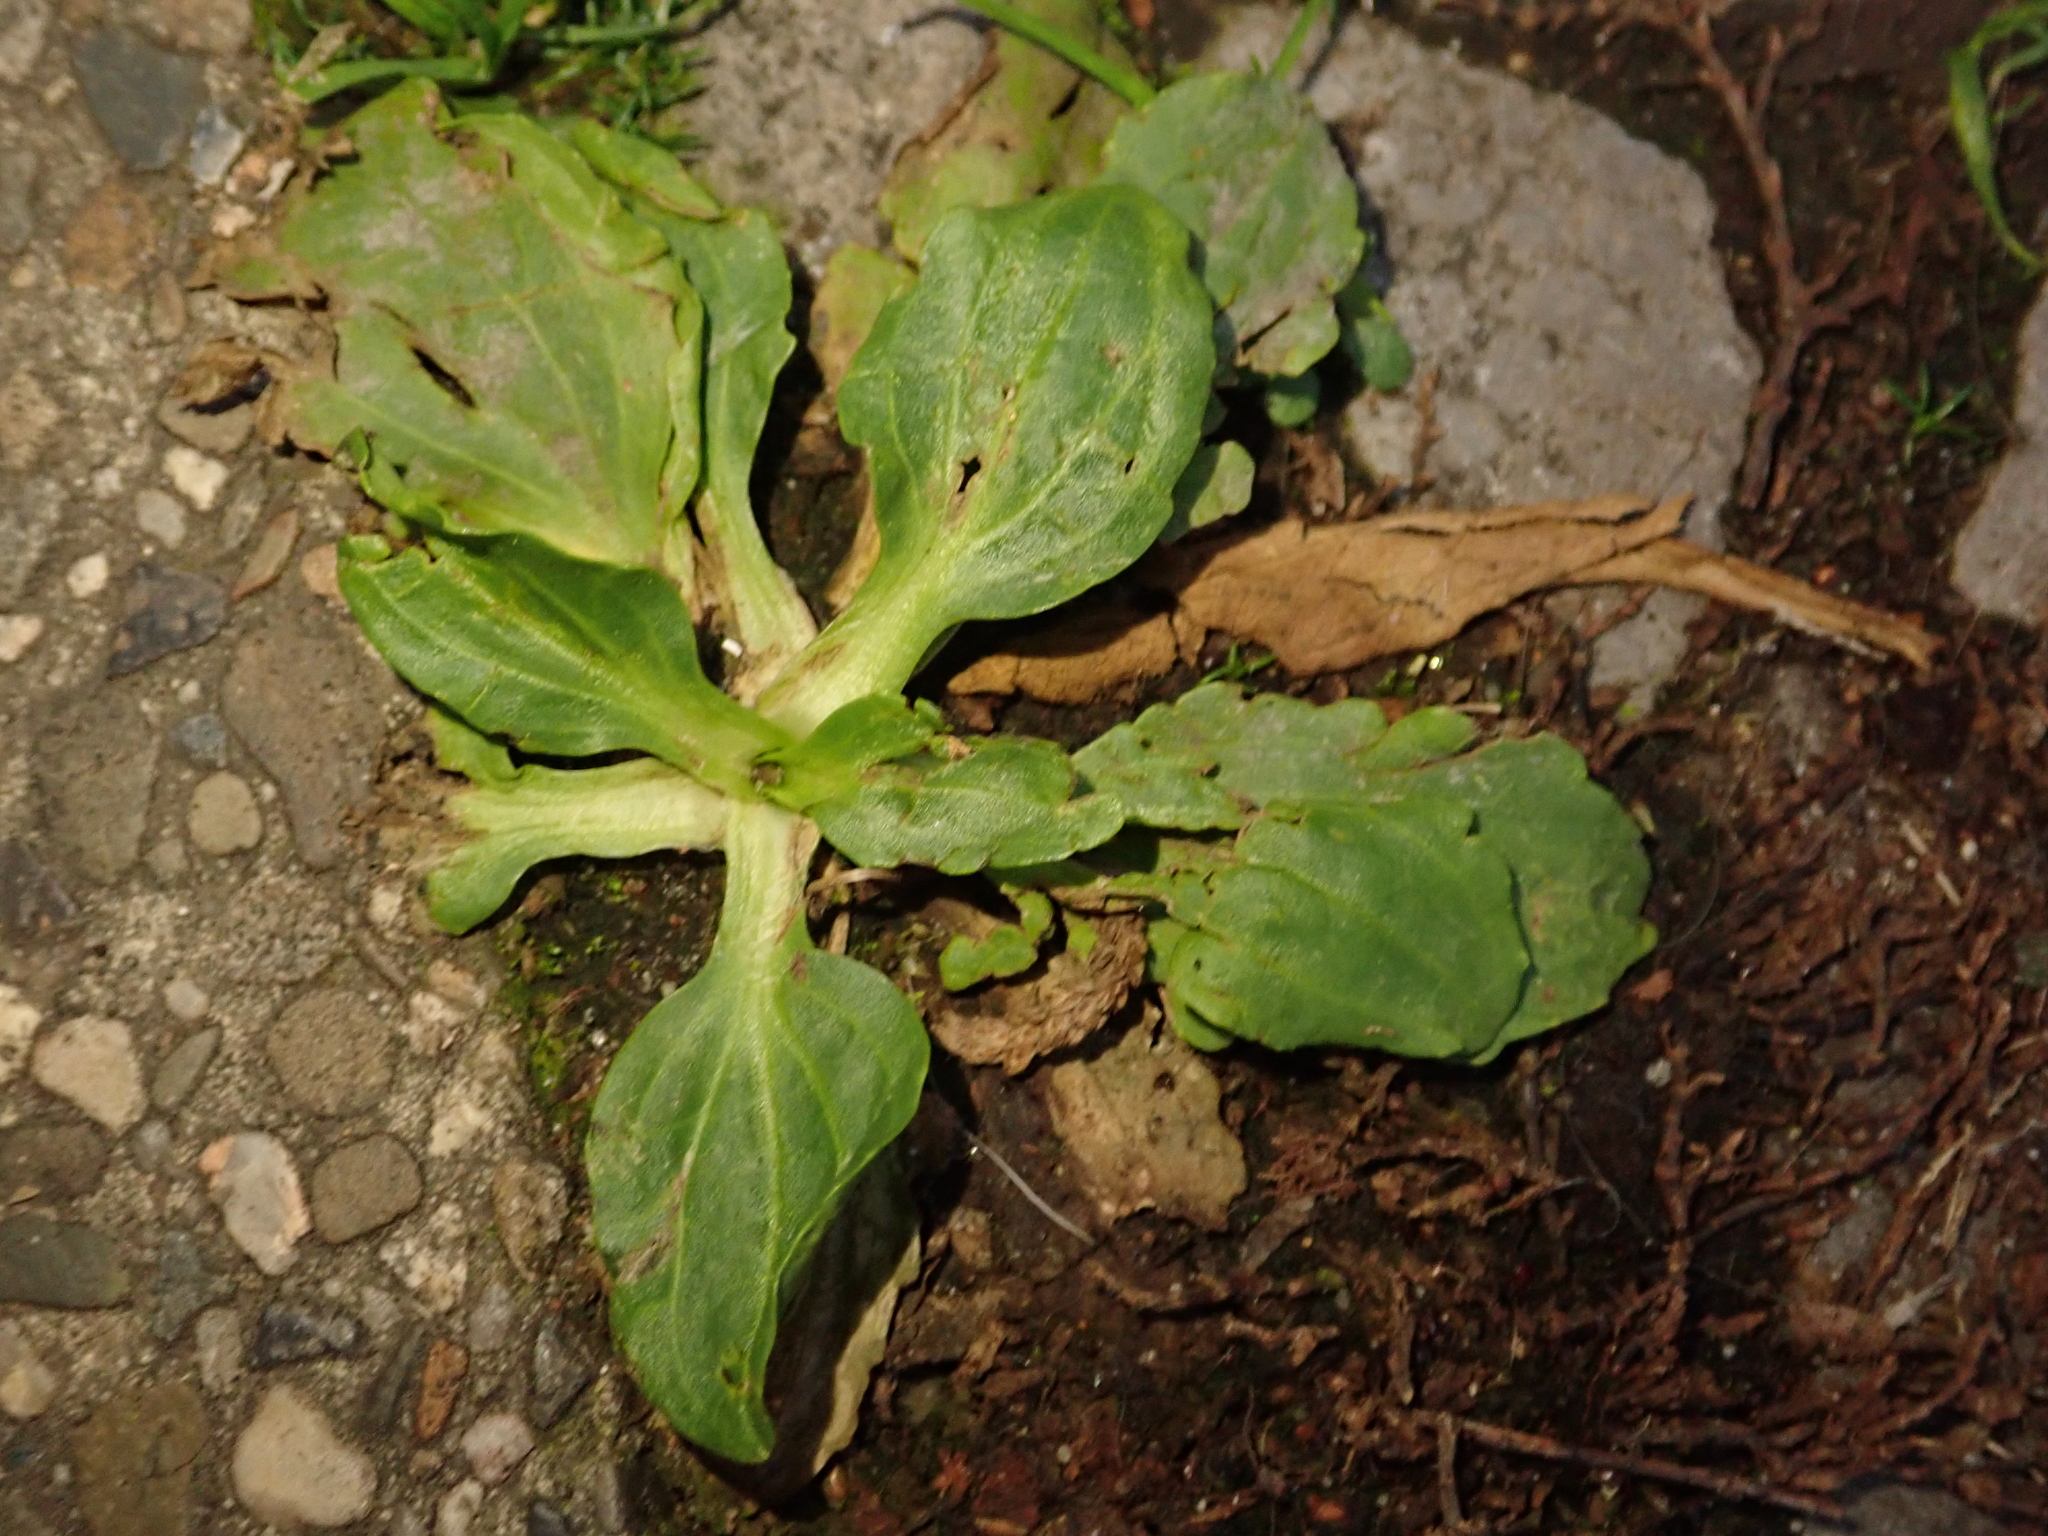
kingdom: Plantae
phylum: Tracheophyta
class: Magnoliopsida
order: Lamiales
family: Plantaginaceae
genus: Plantago
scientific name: Plantago major
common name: Common plantain
